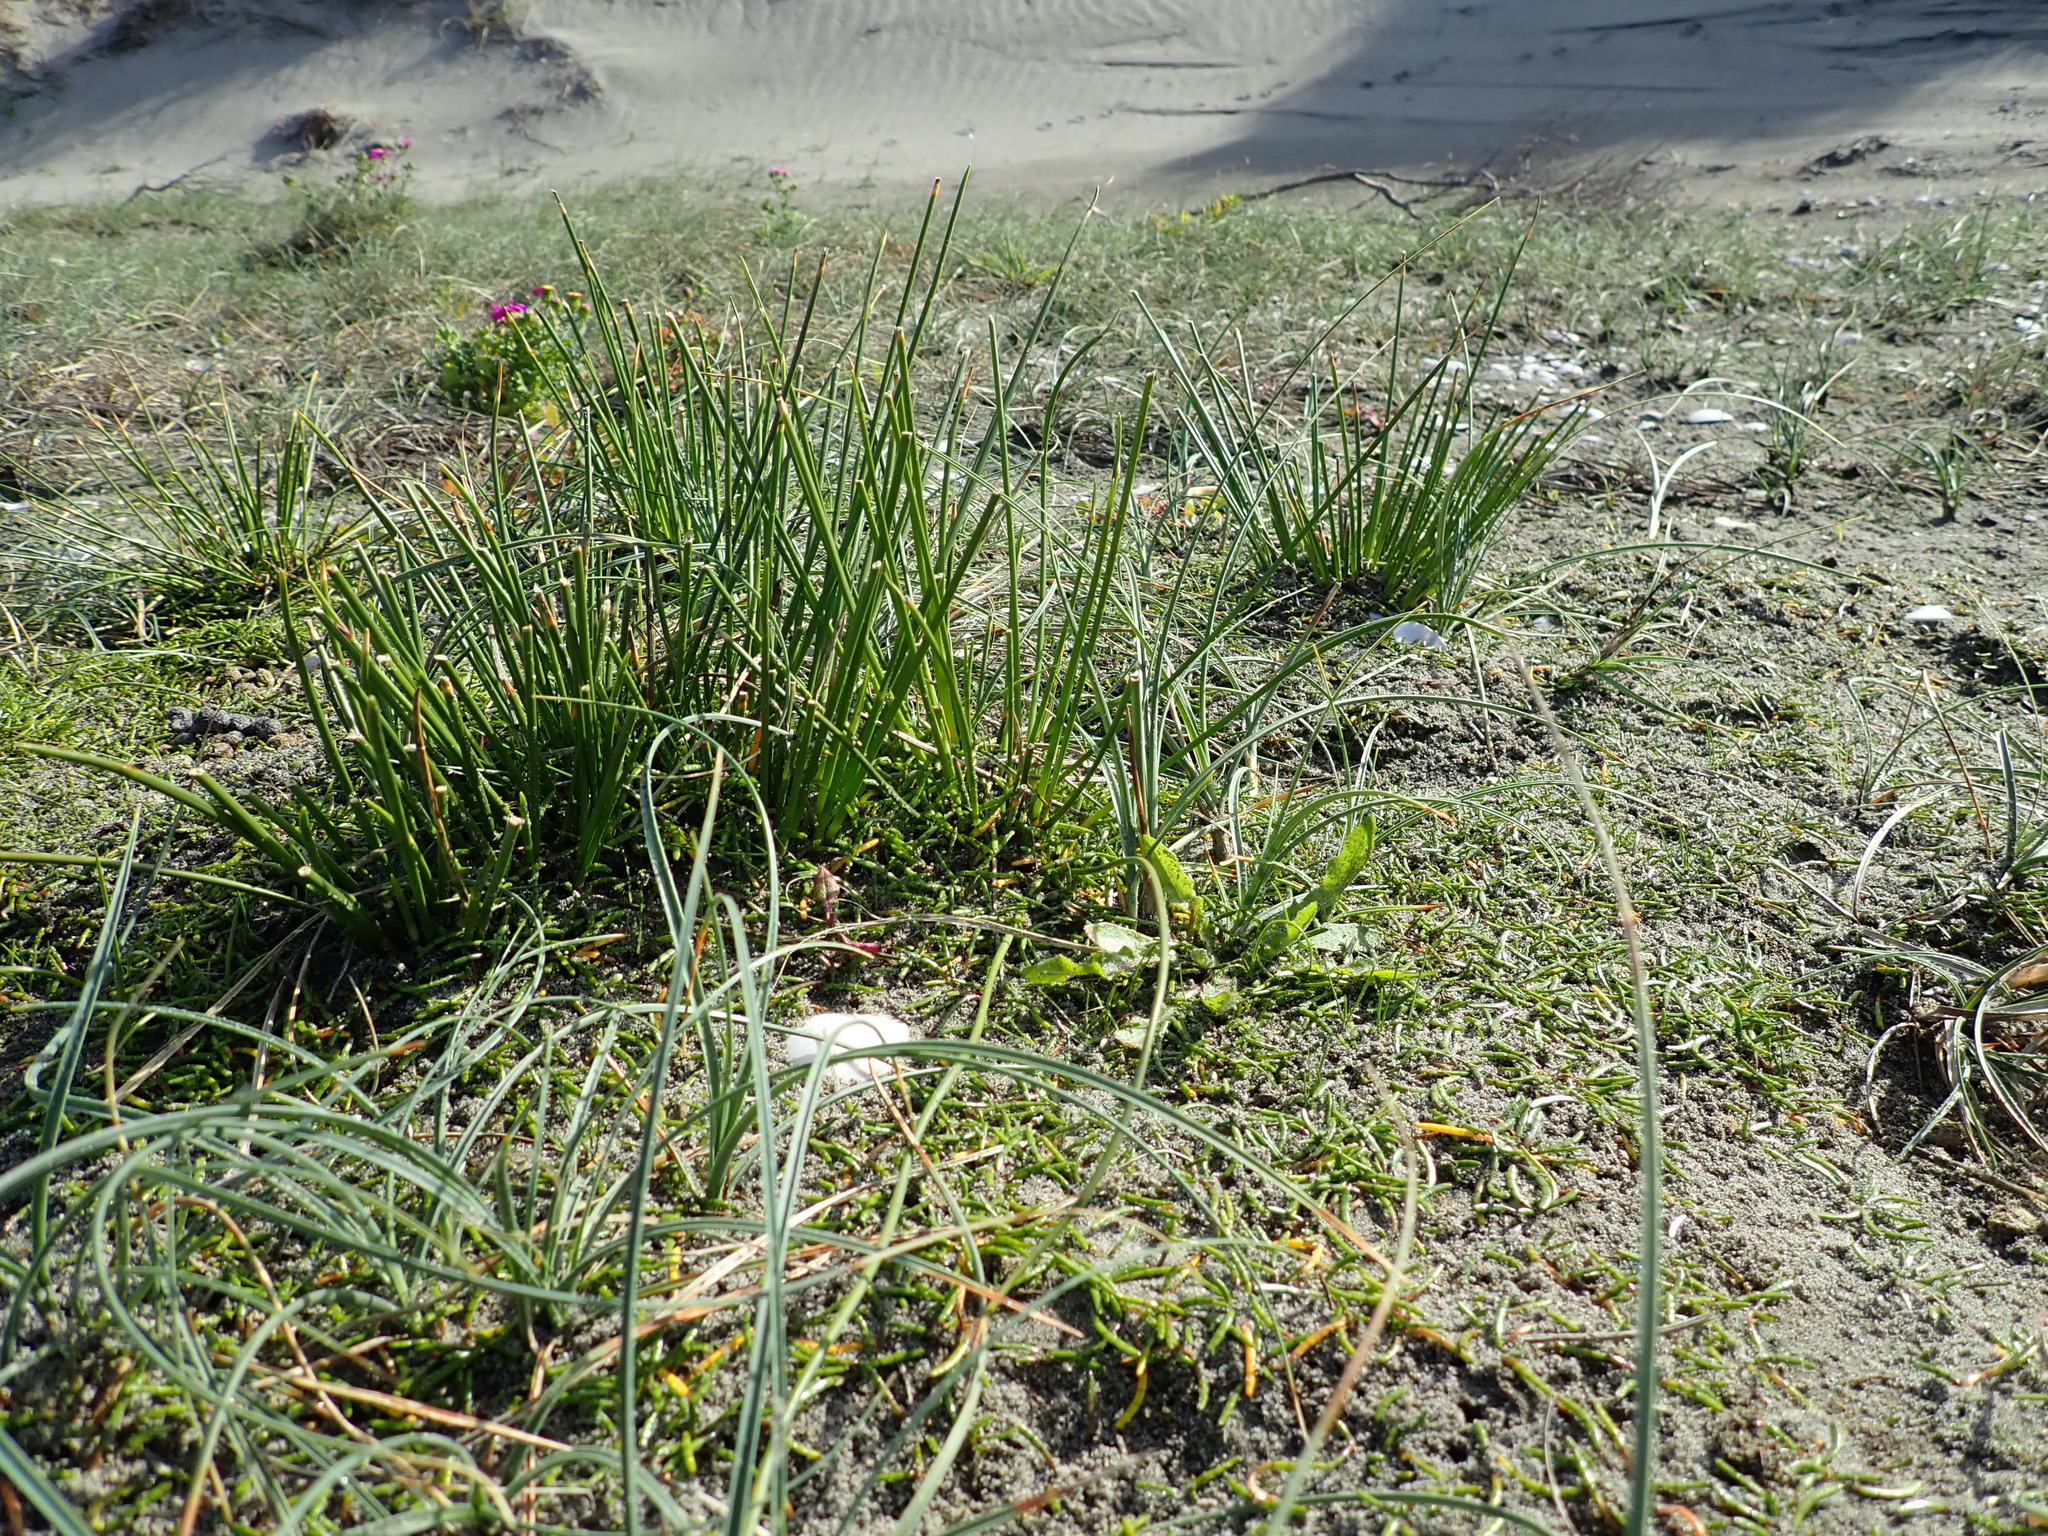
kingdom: Plantae
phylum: Tracheophyta
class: Liliopsida
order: Poales
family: Cyperaceae
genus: Ficinia
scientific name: Ficinia nodosa
